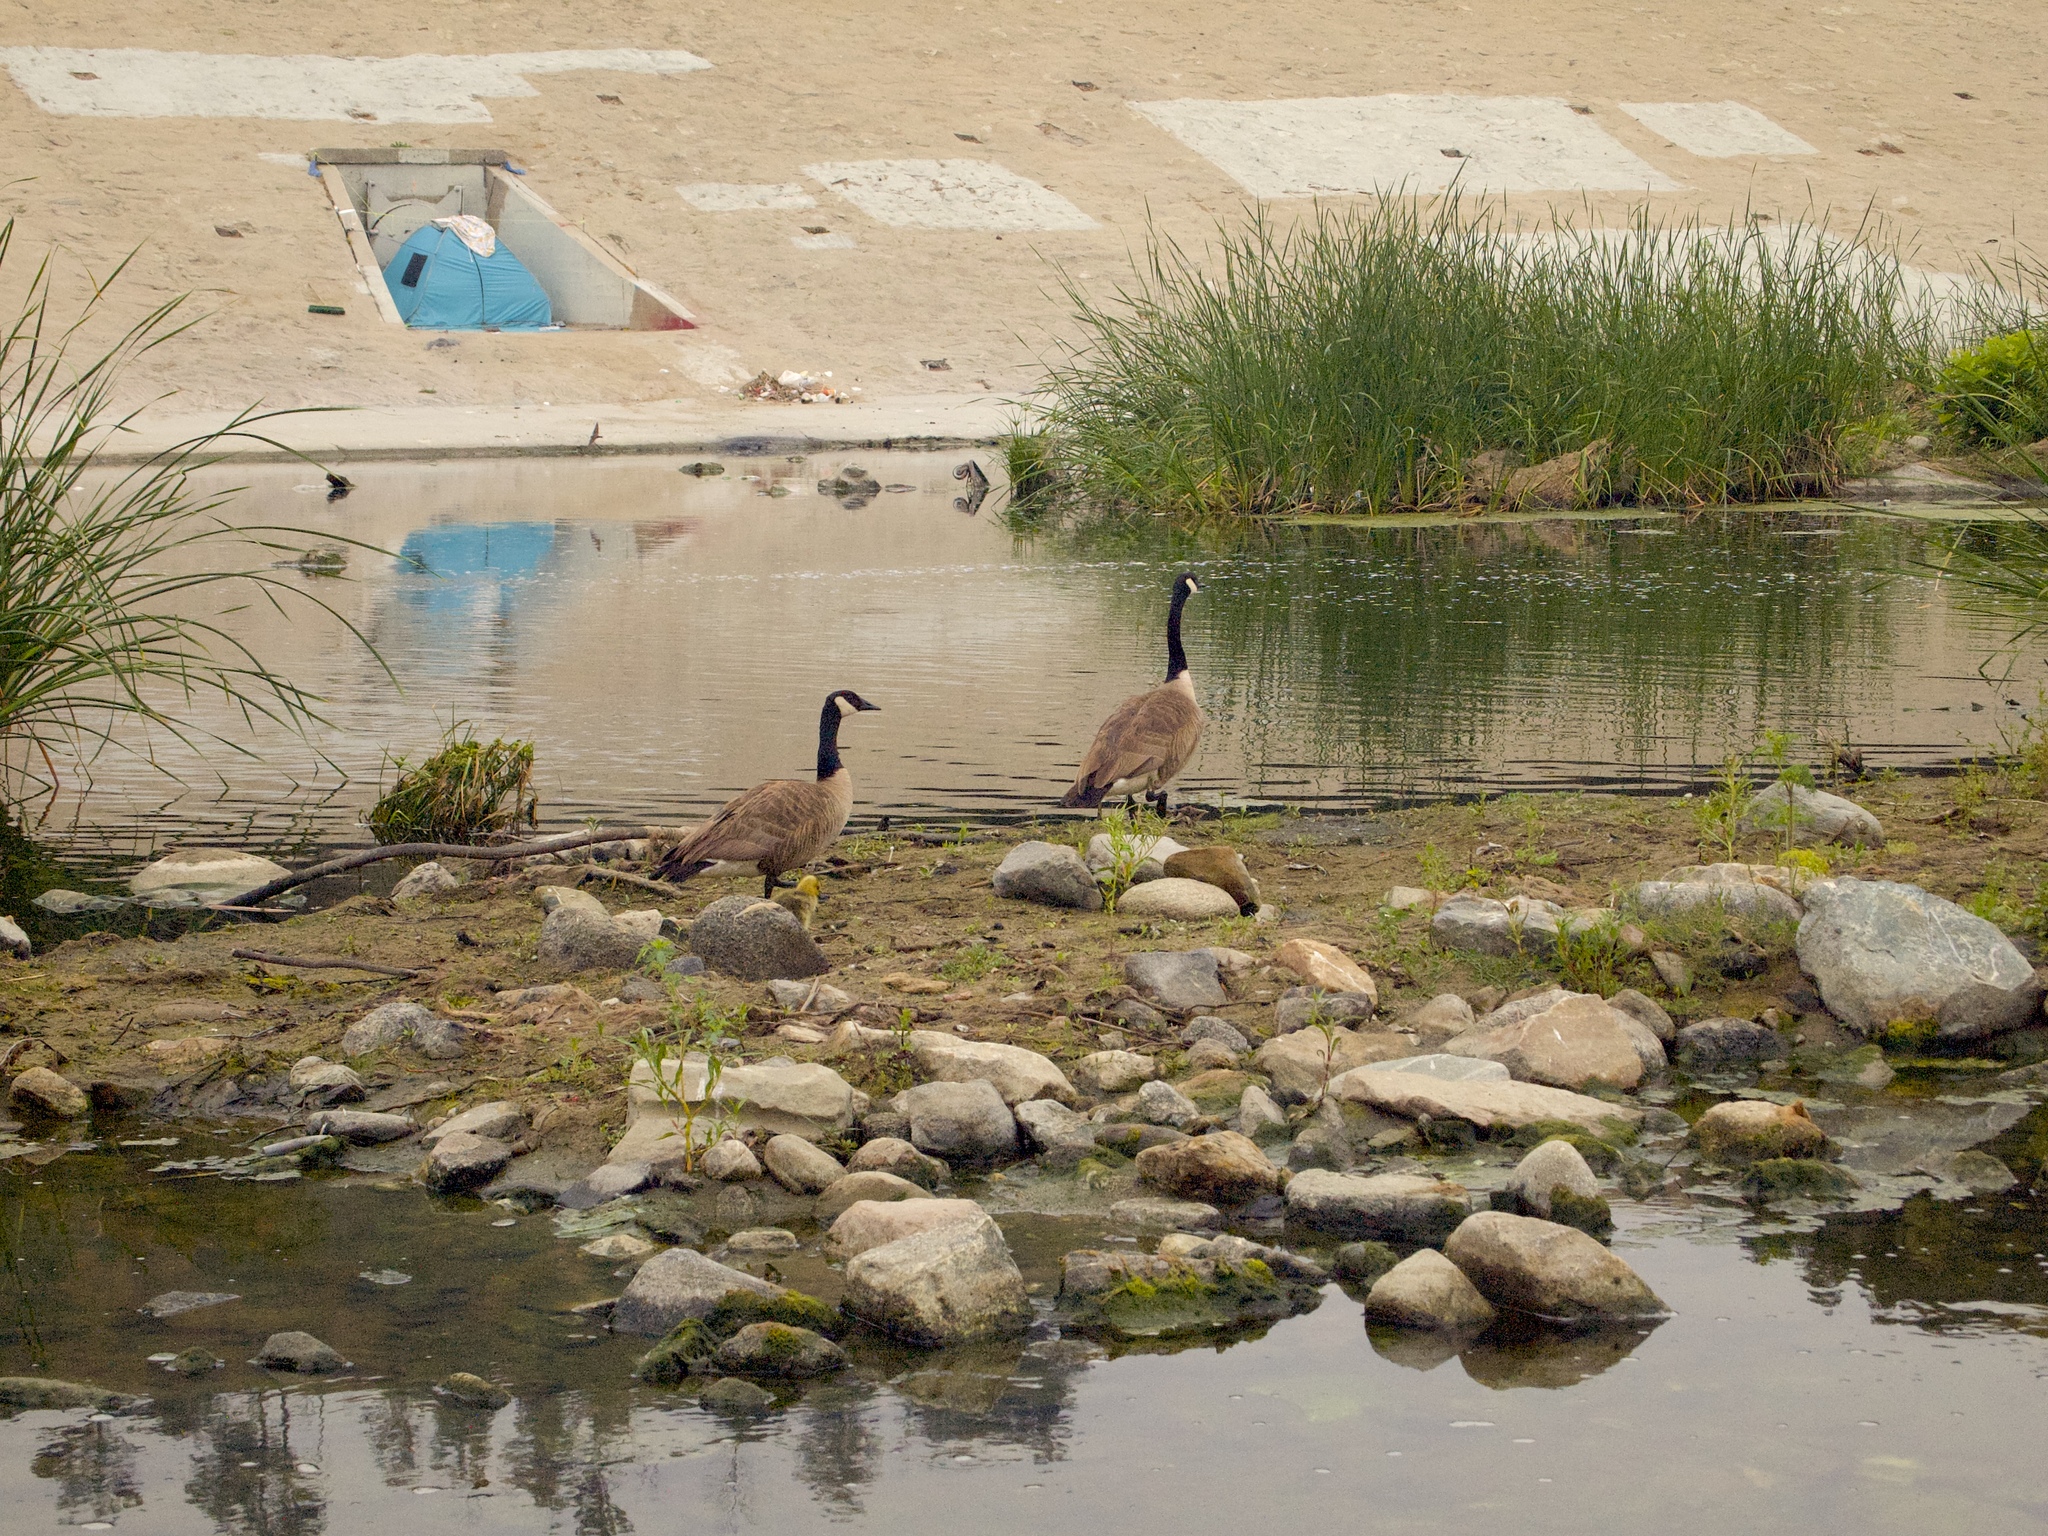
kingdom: Animalia
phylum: Chordata
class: Aves
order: Anseriformes
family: Anatidae
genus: Branta
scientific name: Branta canadensis
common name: Canada goose
